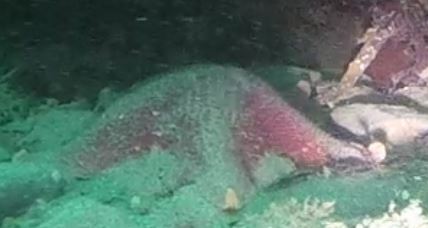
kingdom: Animalia
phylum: Echinodermata
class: Asteroidea
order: Valvatida
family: Asterinidae
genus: Patiria
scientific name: Patiria miniata
